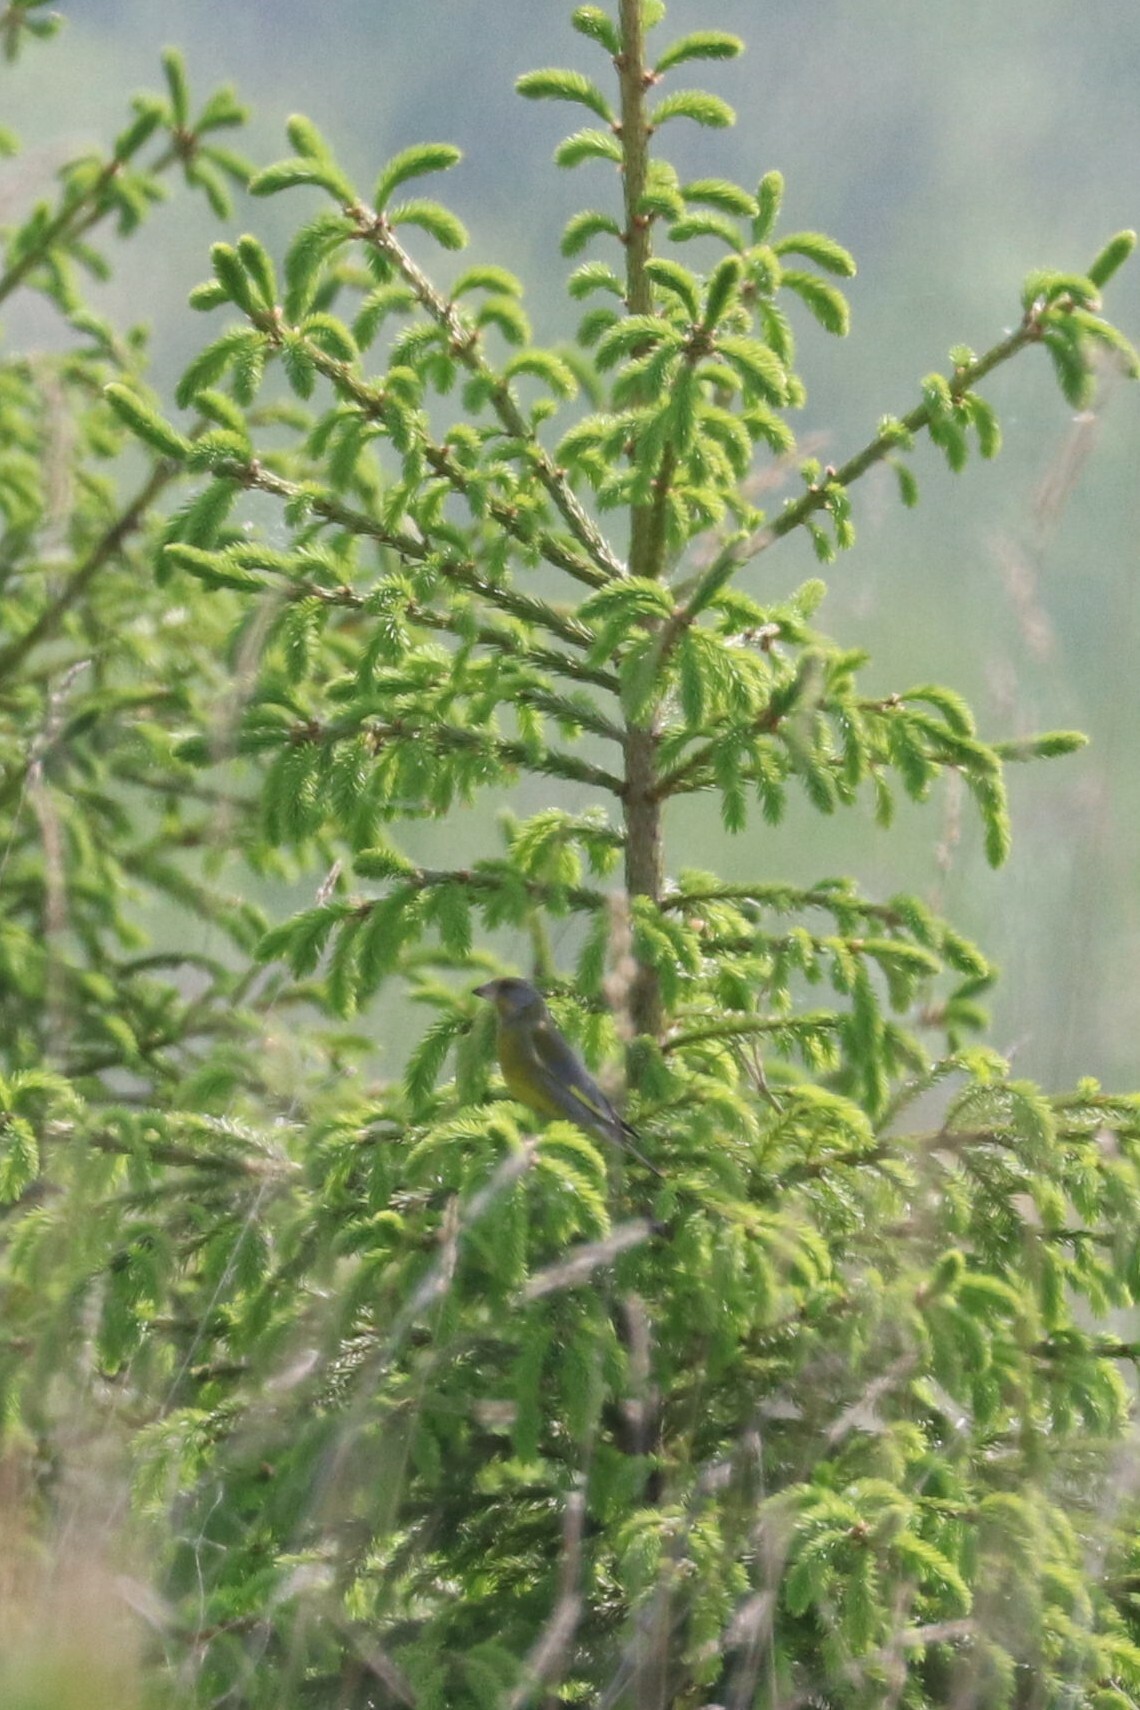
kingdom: Plantae
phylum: Tracheophyta
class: Liliopsida
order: Poales
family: Poaceae
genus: Chloris
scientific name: Chloris chloris
